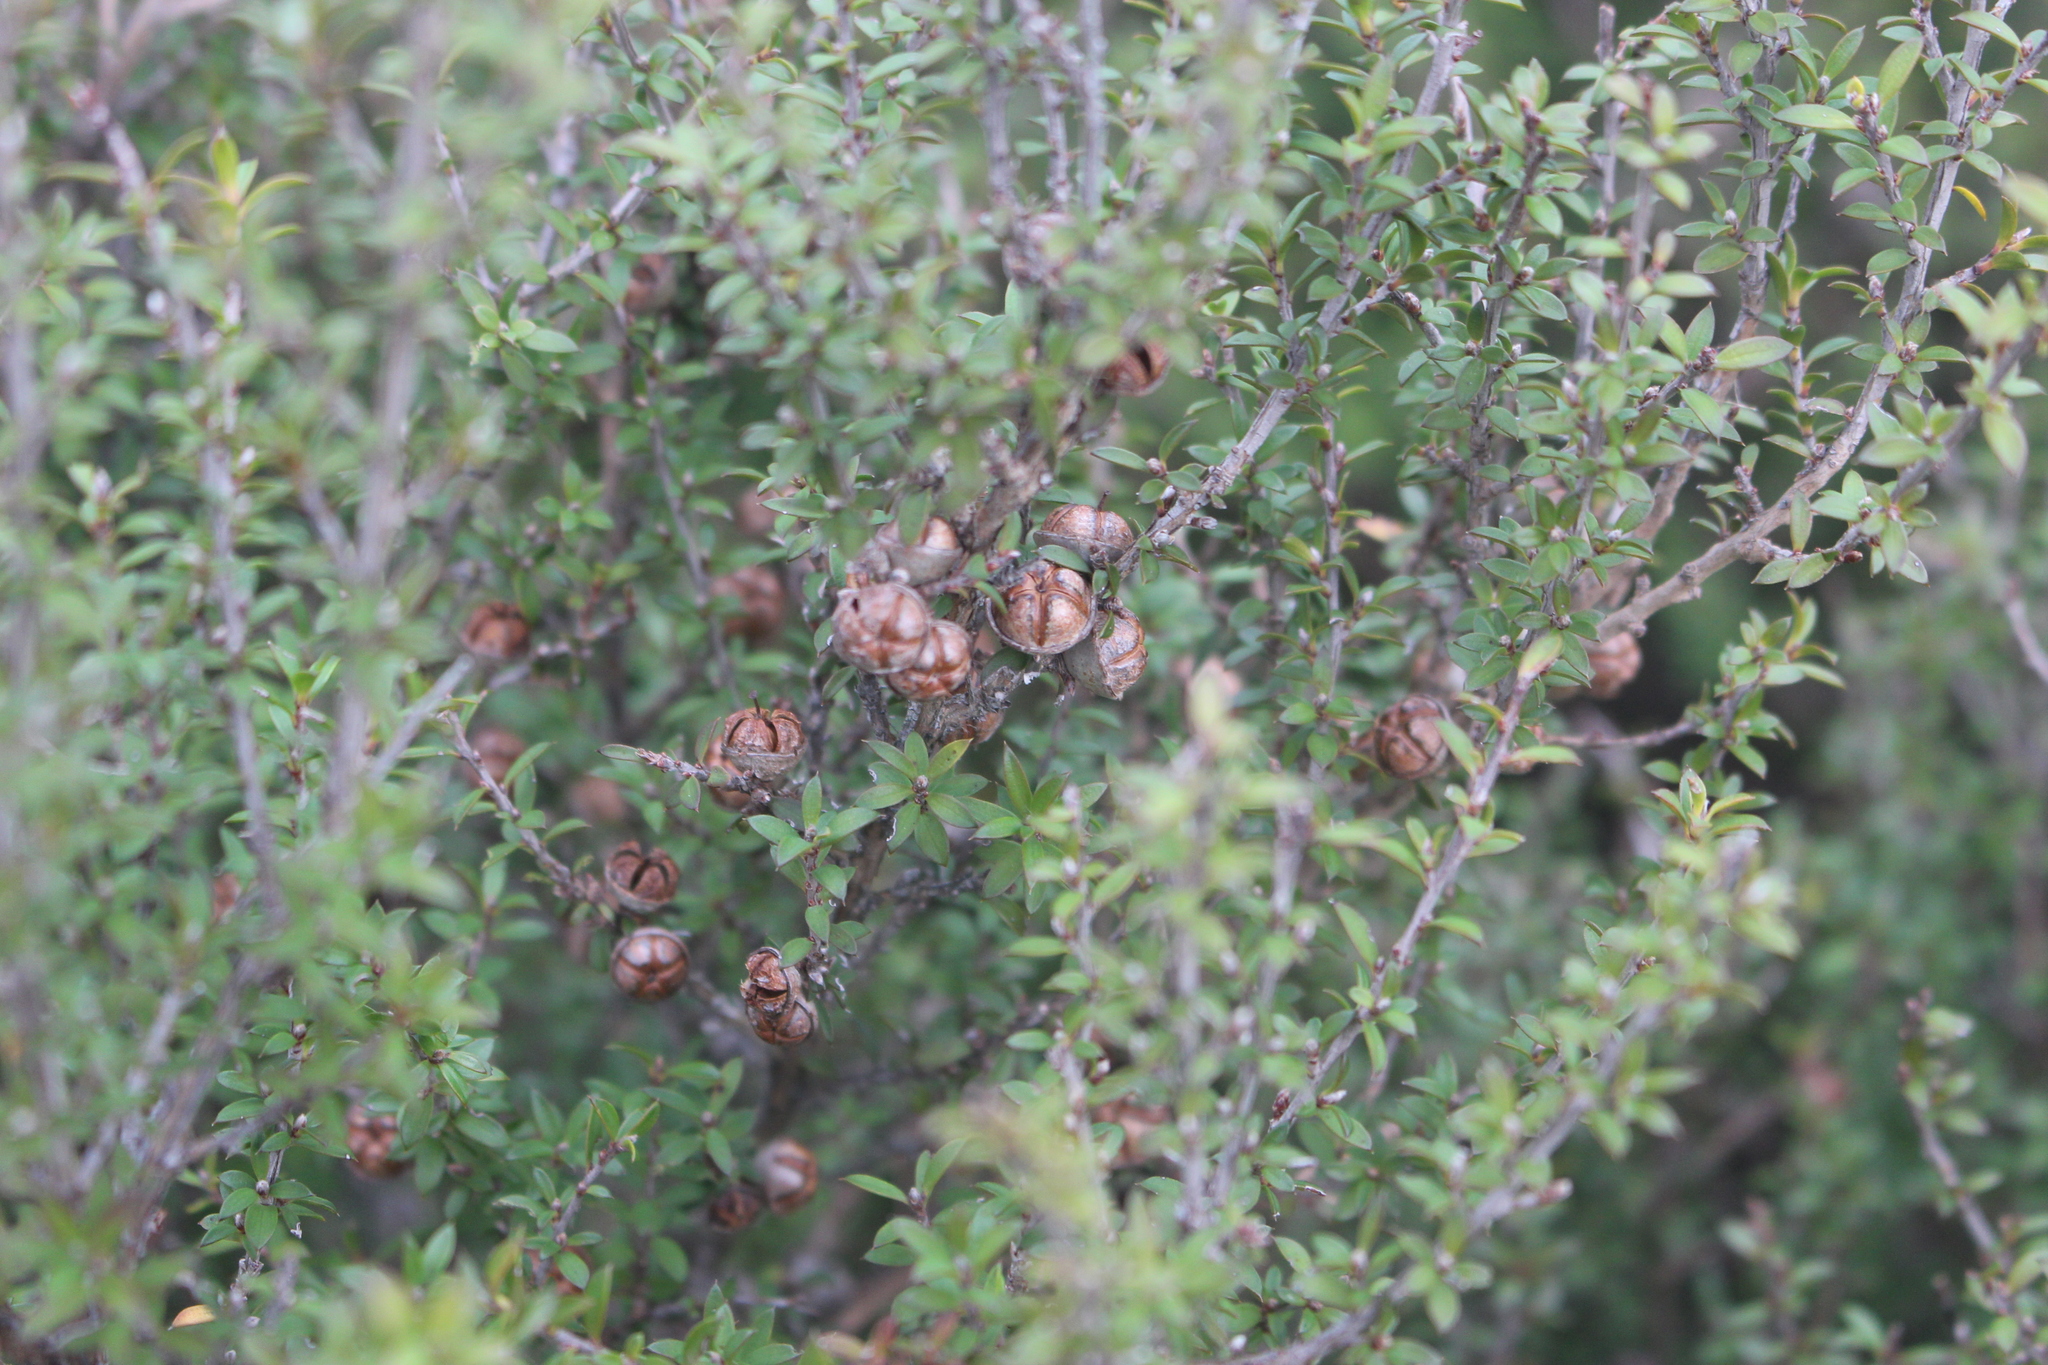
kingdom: Plantae
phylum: Tracheophyta
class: Magnoliopsida
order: Myrtales
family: Myrtaceae
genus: Leptospermum
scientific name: Leptospermum scoparium
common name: Broom tea-tree
